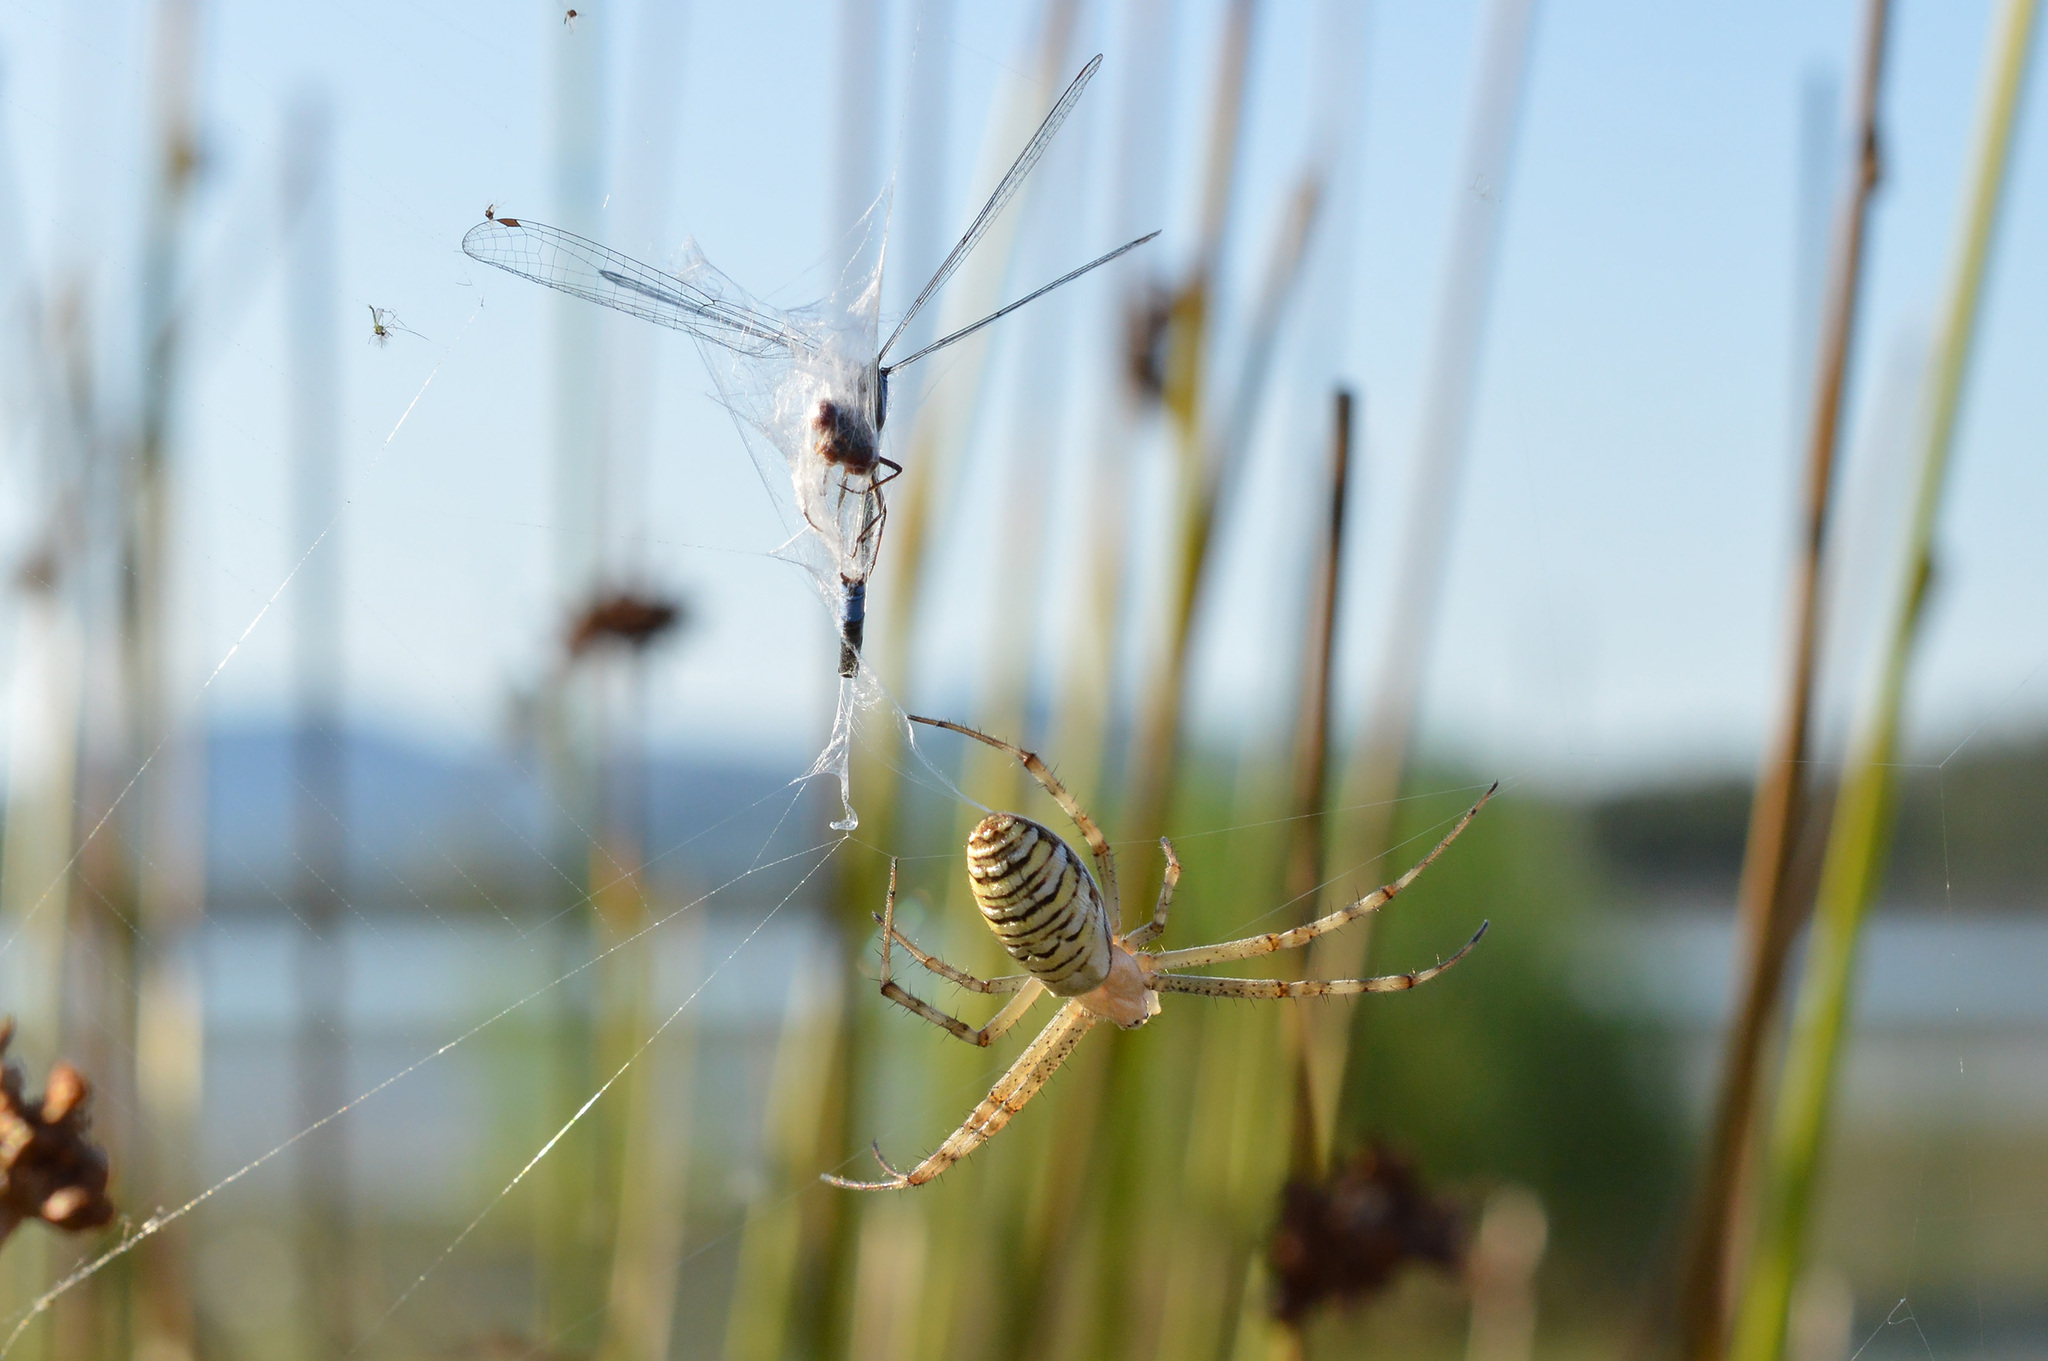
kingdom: Animalia
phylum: Arthropoda
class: Arachnida
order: Araneae
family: Araneidae
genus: Argiope
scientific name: Argiope bruennichi
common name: Wasp spider
